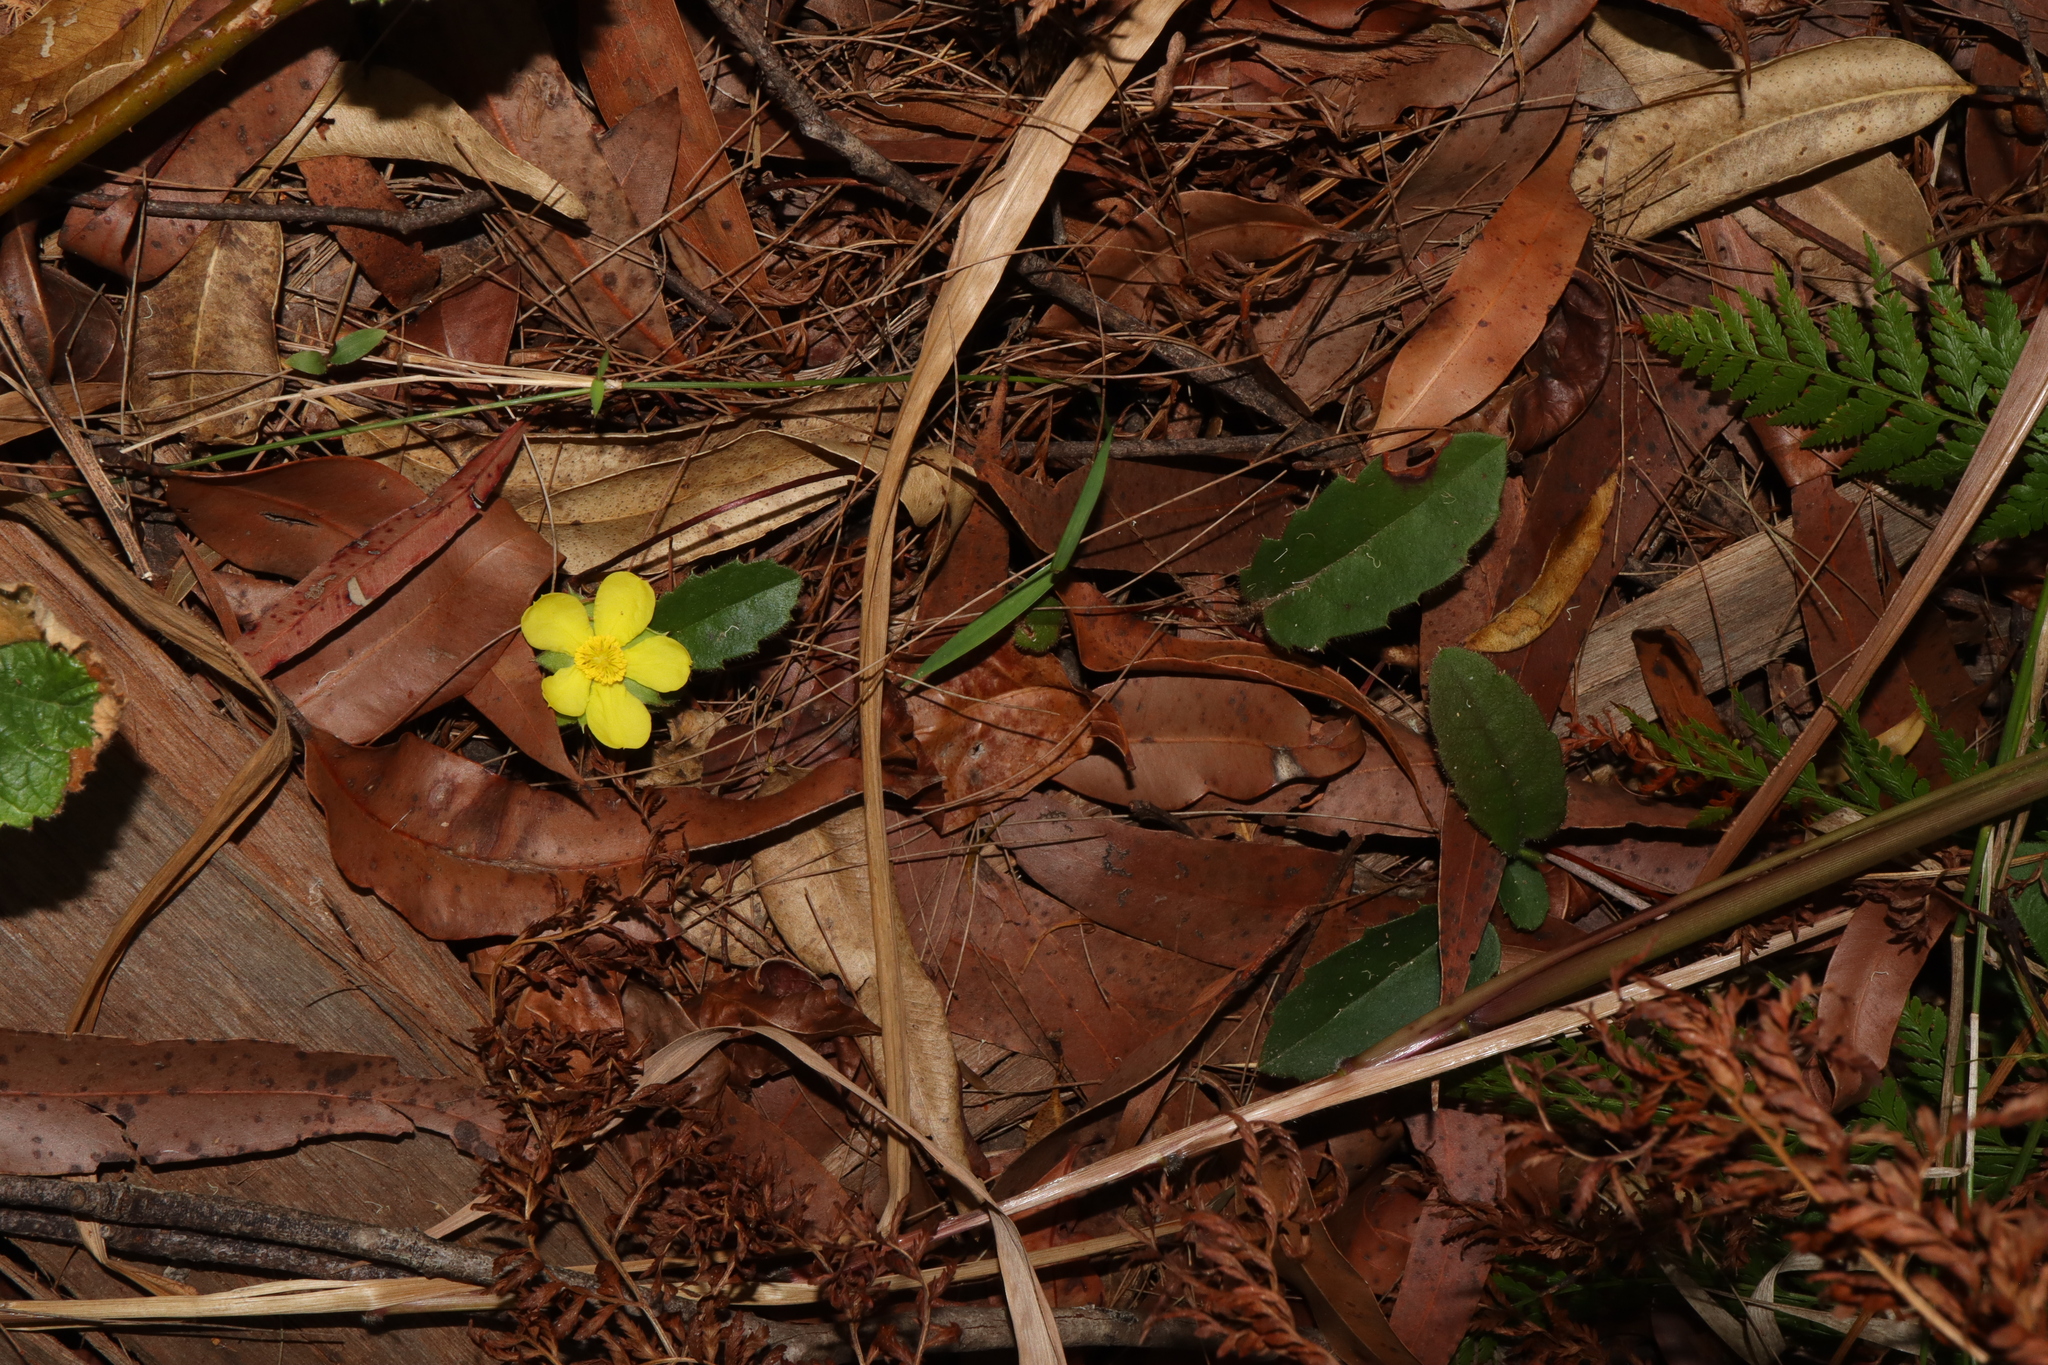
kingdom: Plantae
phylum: Tracheophyta
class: Magnoliopsida
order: Dilleniales
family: Dilleniaceae
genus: Hibbertia
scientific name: Hibbertia dentata
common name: Trailing guinea-flower
